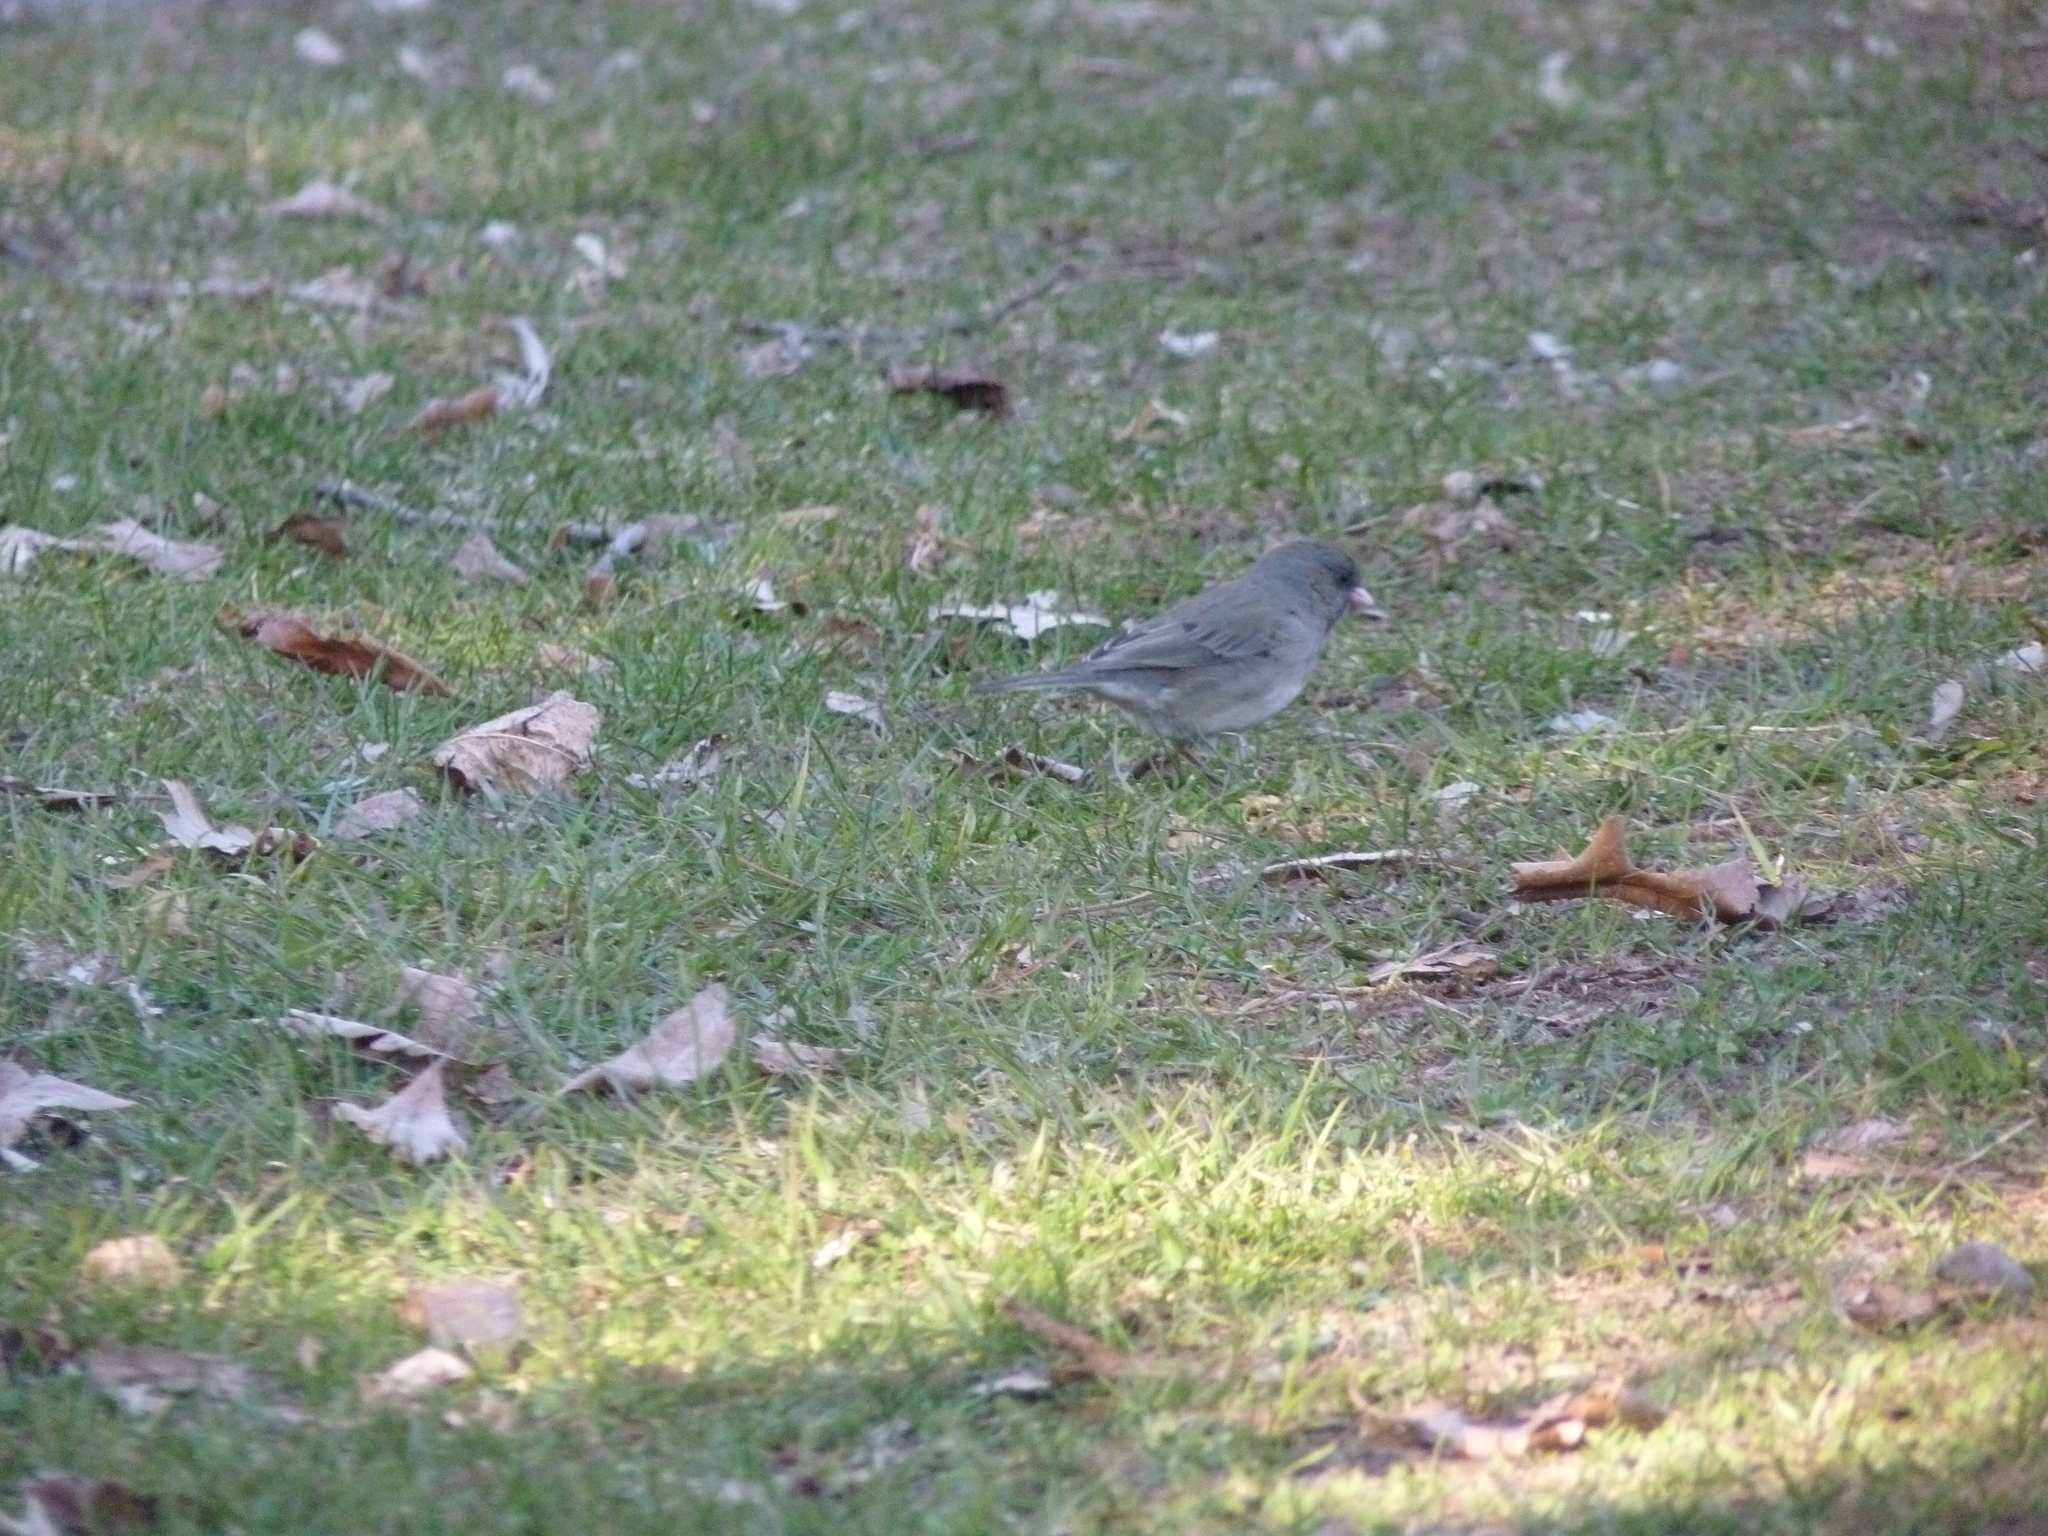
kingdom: Animalia
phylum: Chordata
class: Aves
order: Passeriformes
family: Passerellidae
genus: Junco
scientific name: Junco hyemalis
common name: Dark-eyed junco
